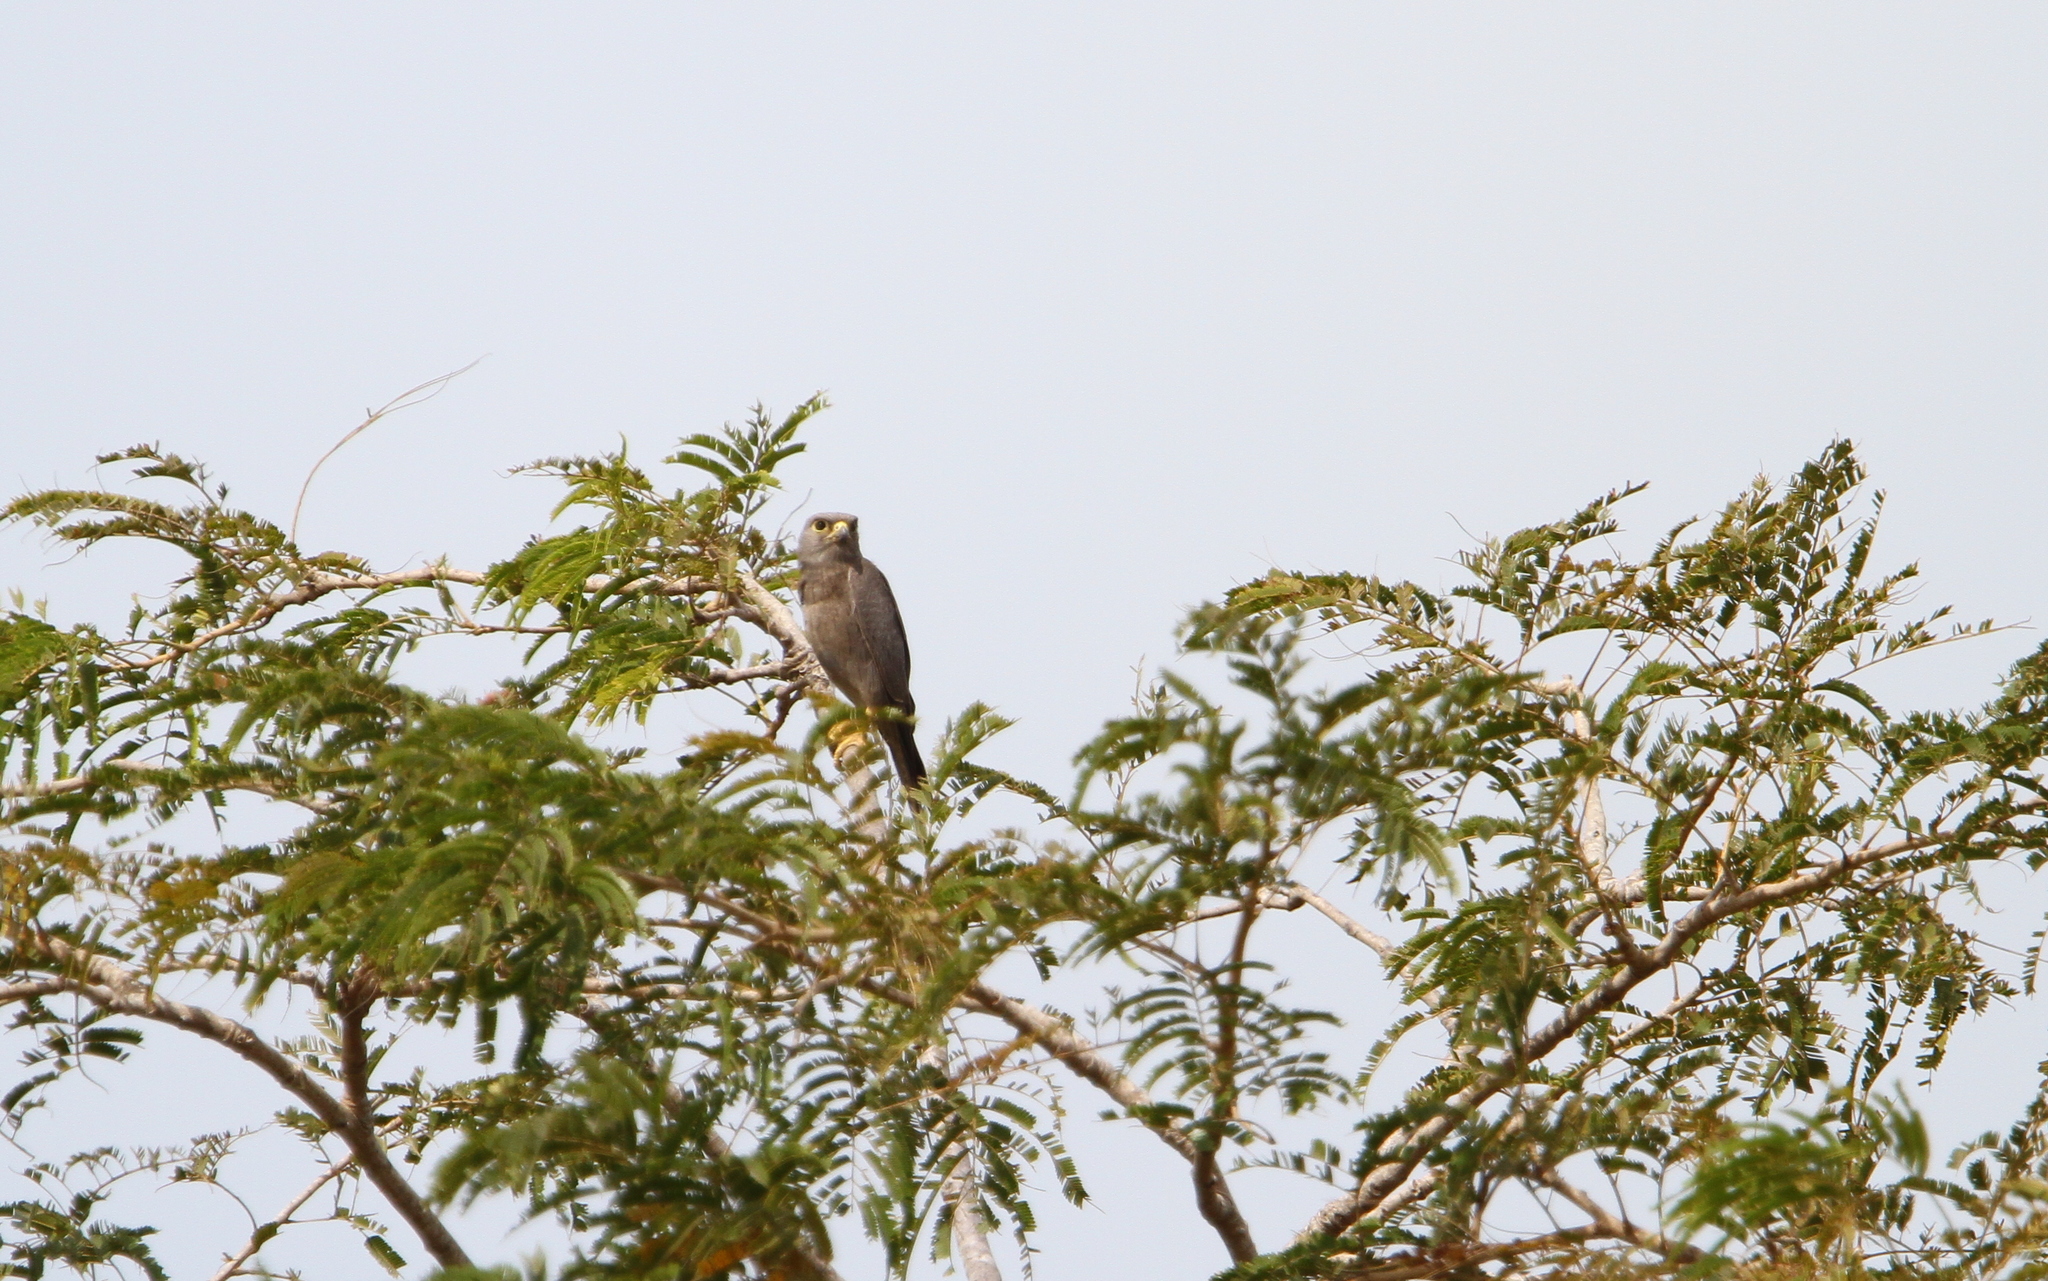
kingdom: Animalia
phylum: Chordata
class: Aves
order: Falconiformes
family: Falconidae
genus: Falco
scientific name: Falco ardosiaceus
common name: Grey kestrel
